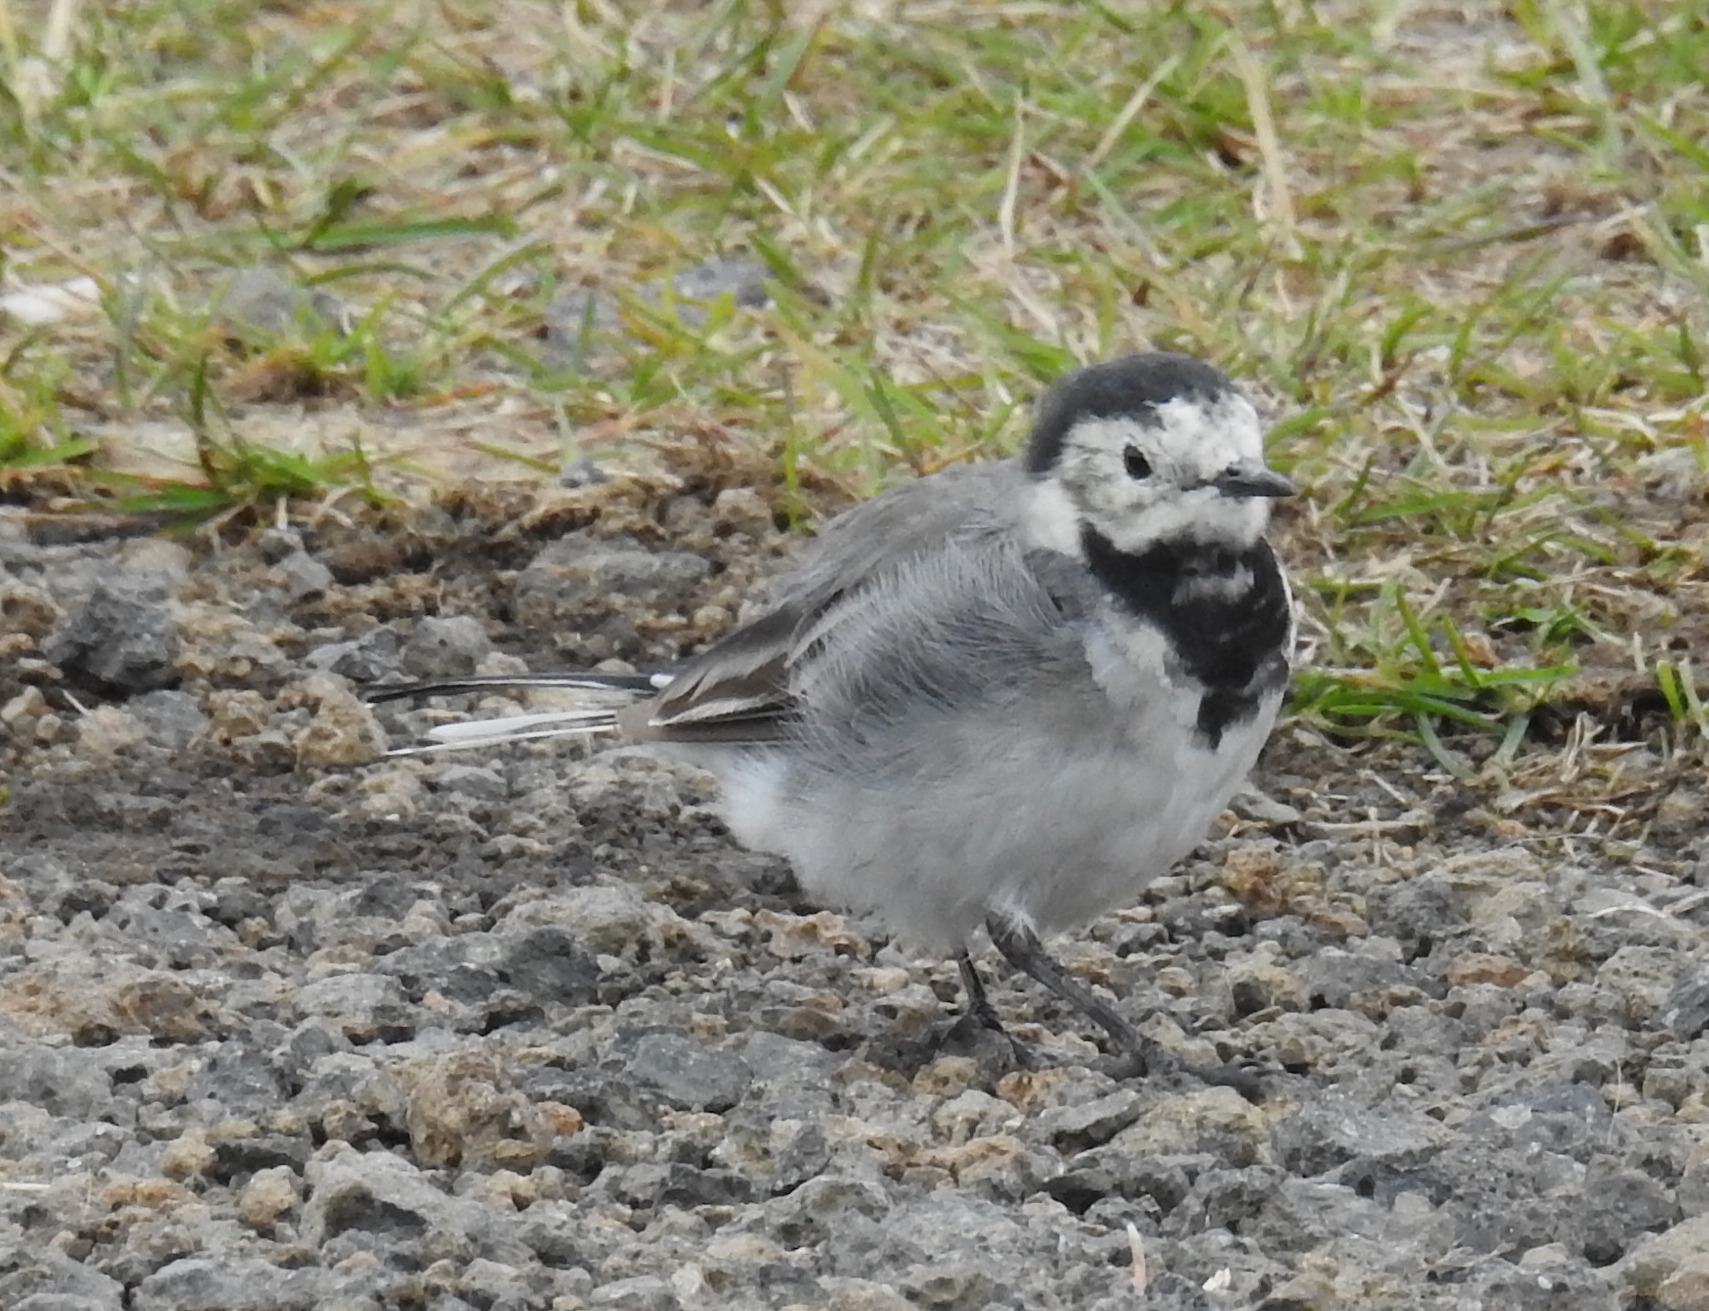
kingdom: Animalia
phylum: Chordata
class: Aves
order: Passeriformes
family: Motacillidae
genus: Motacilla
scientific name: Motacilla alba
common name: White wagtail
